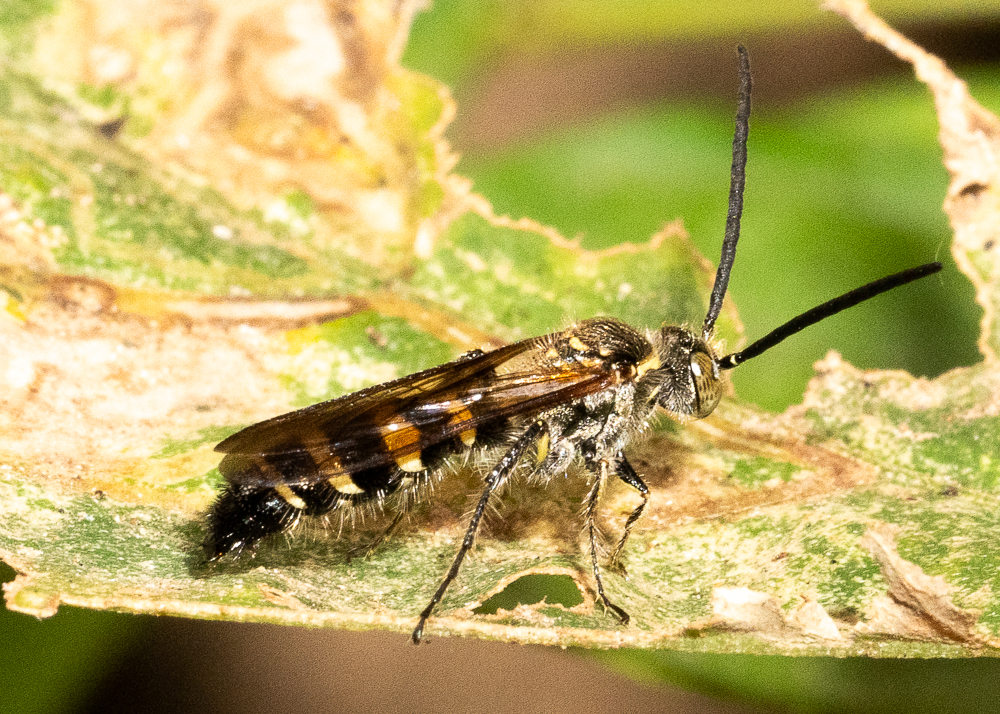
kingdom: Animalia
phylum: Arthropoda
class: Insecta
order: Hymenoptera
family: Scoliidae
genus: Campsomeris
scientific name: Campsomeris phalerata
